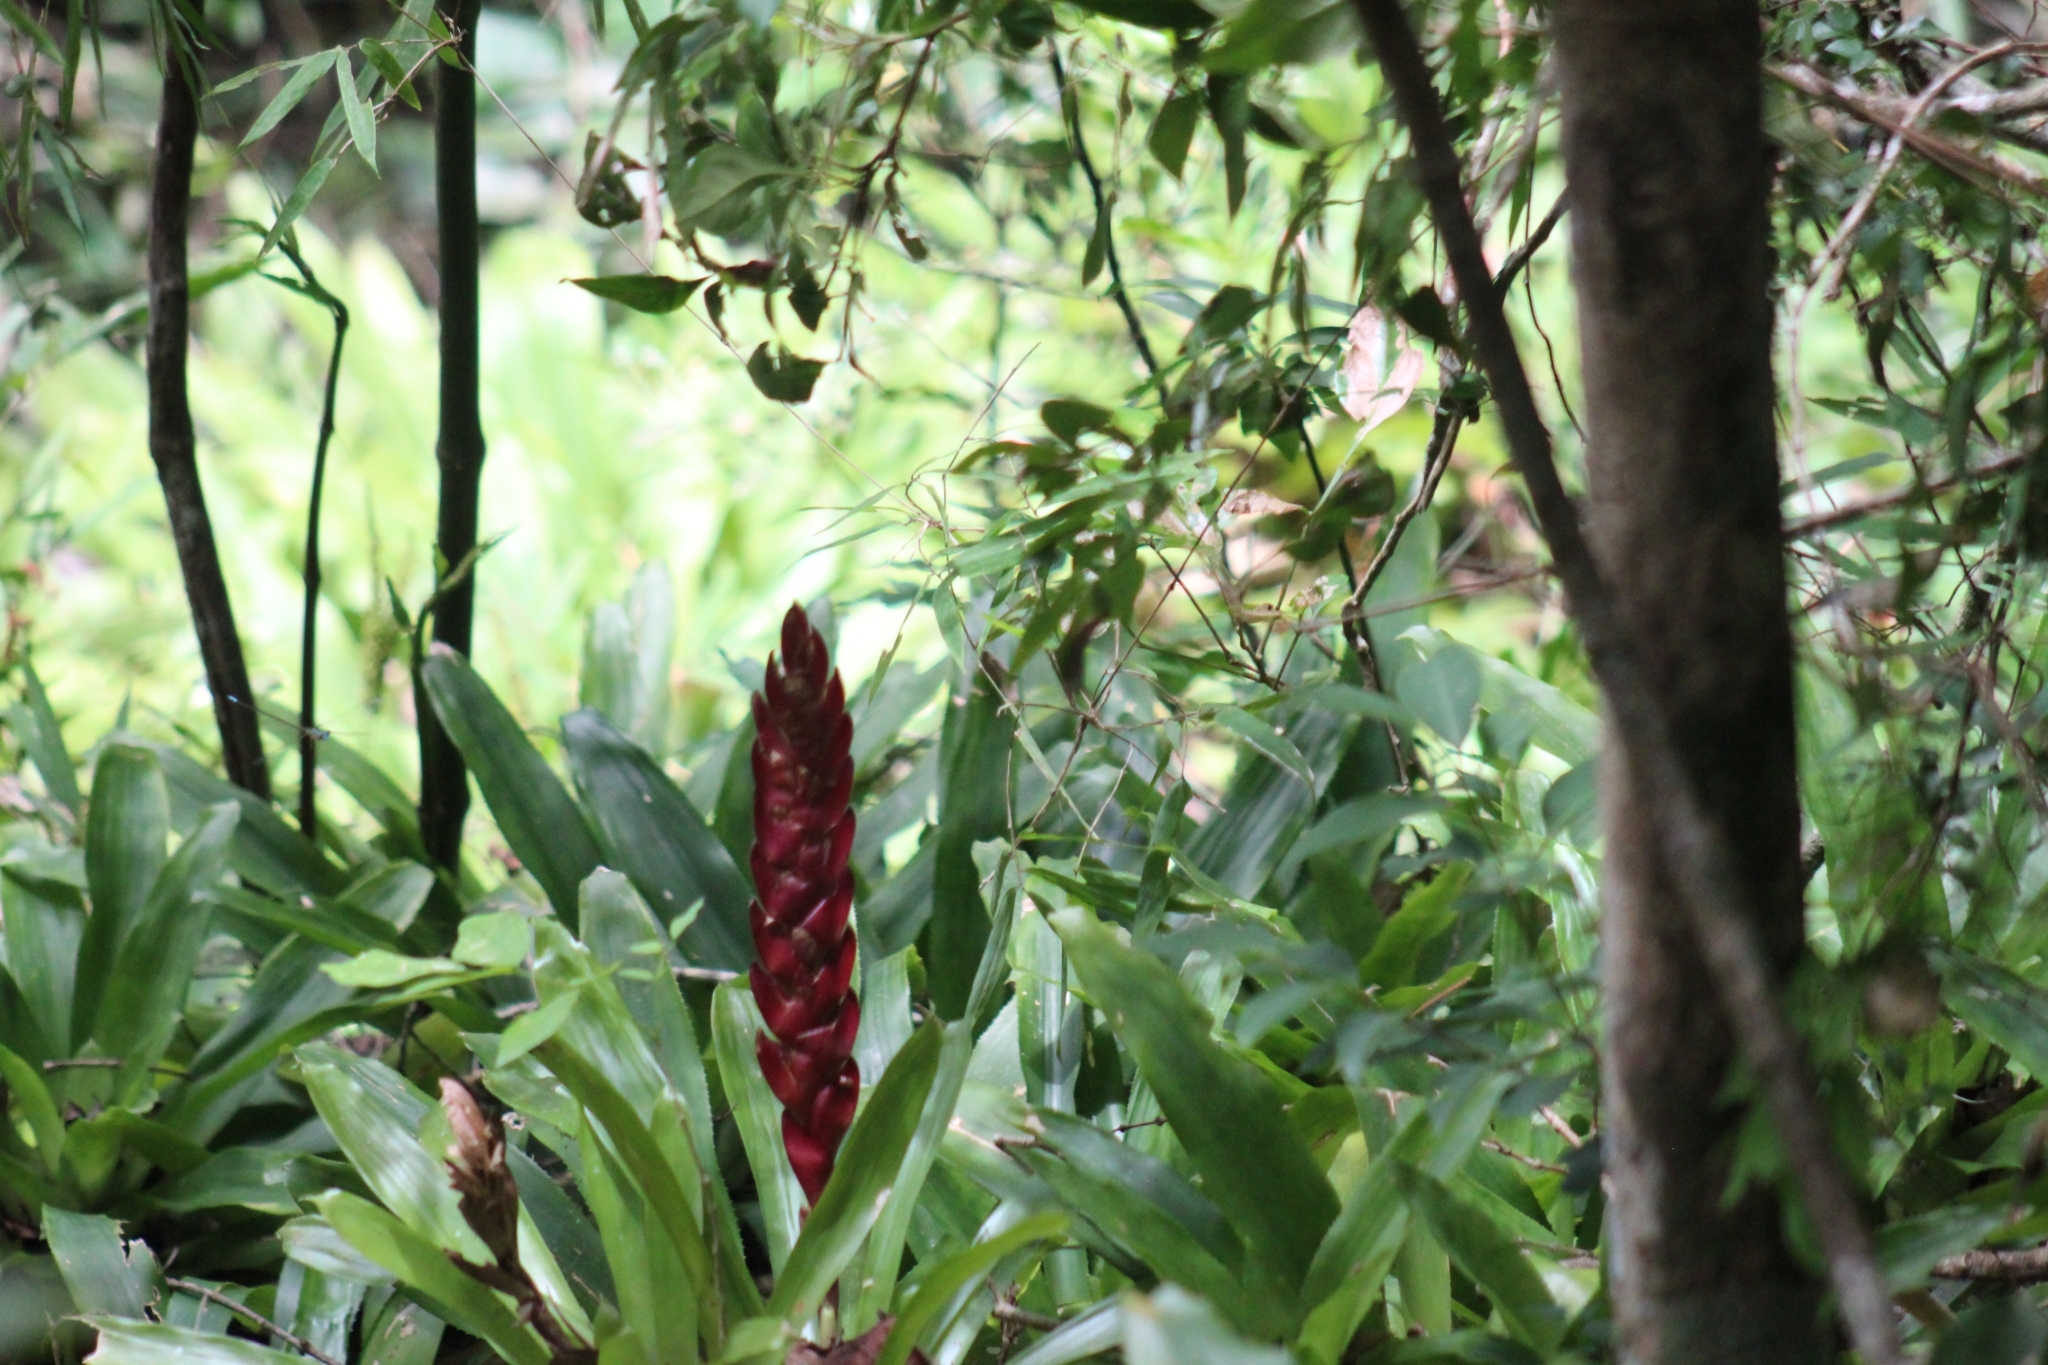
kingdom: Plantae
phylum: Tracheophyta
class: Liliopsida
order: Poales
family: Bromeliaceae
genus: Vriesea
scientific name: Vriesea incurvata
